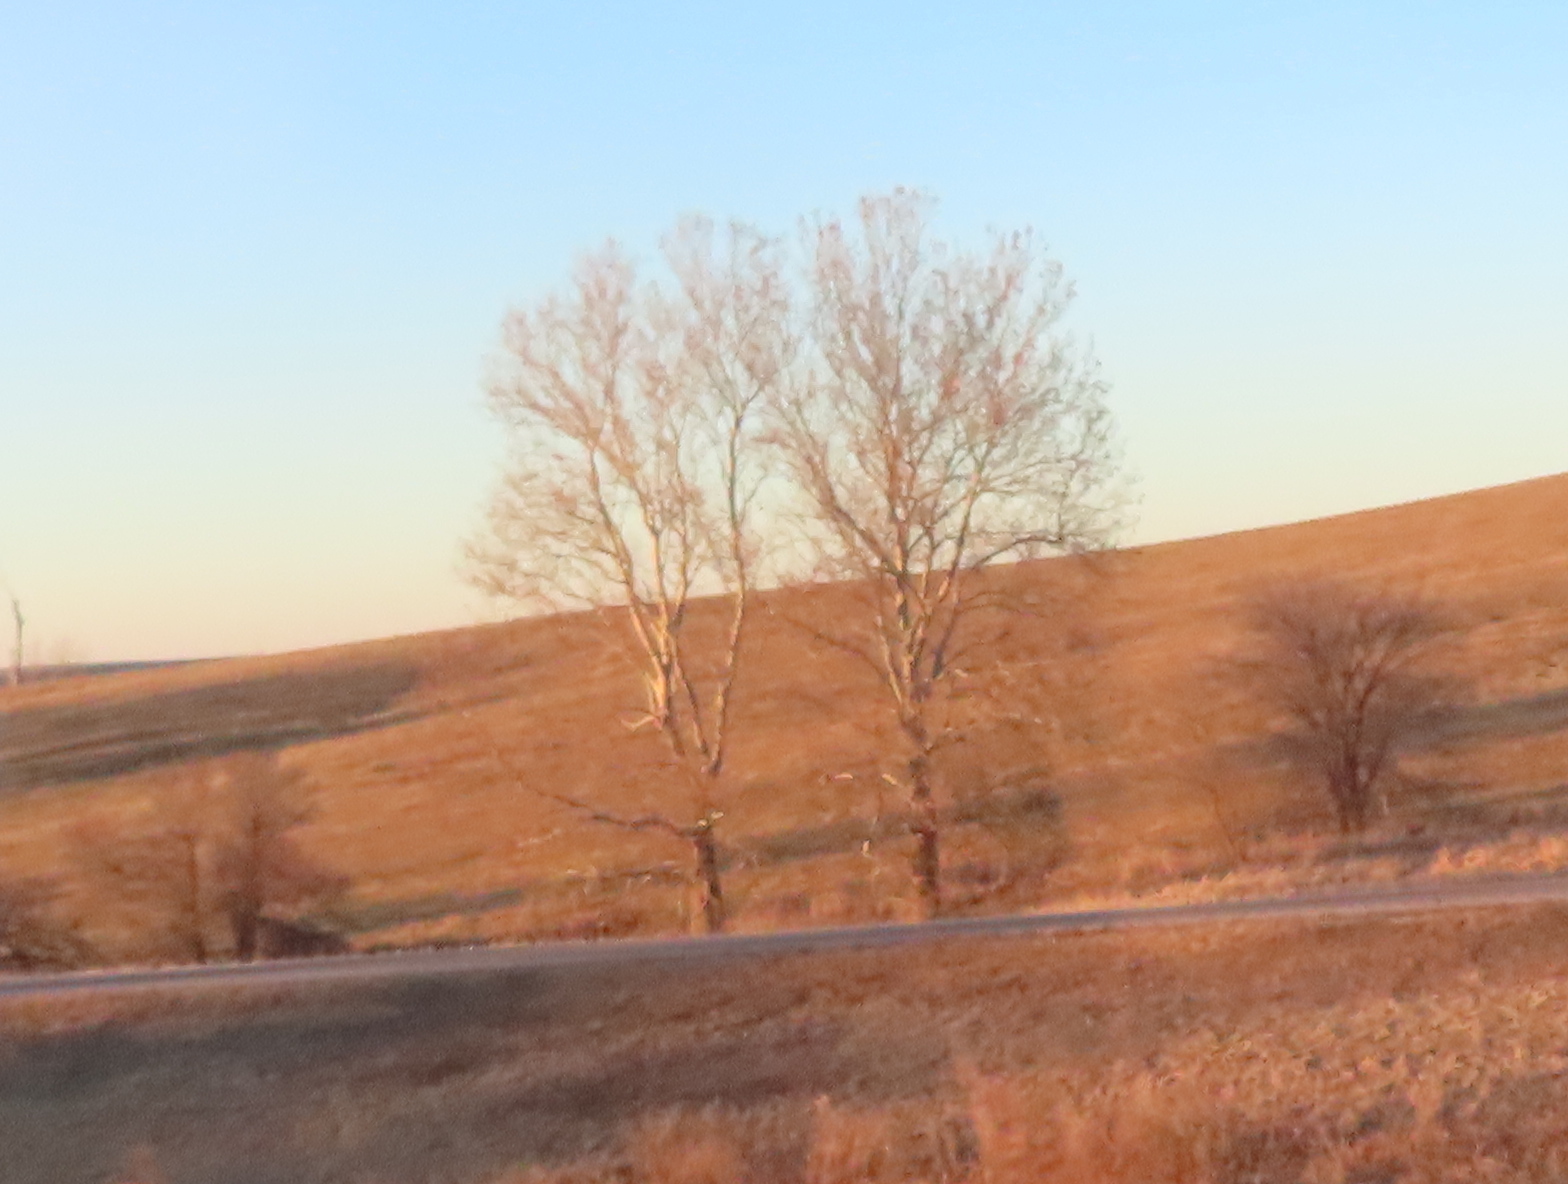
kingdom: Plantae
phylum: Tracheophyta
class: Magnoliopsida
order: Proteales
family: Platanaceae
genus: Platanus
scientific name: Platanus occidentalis
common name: American sycamore
